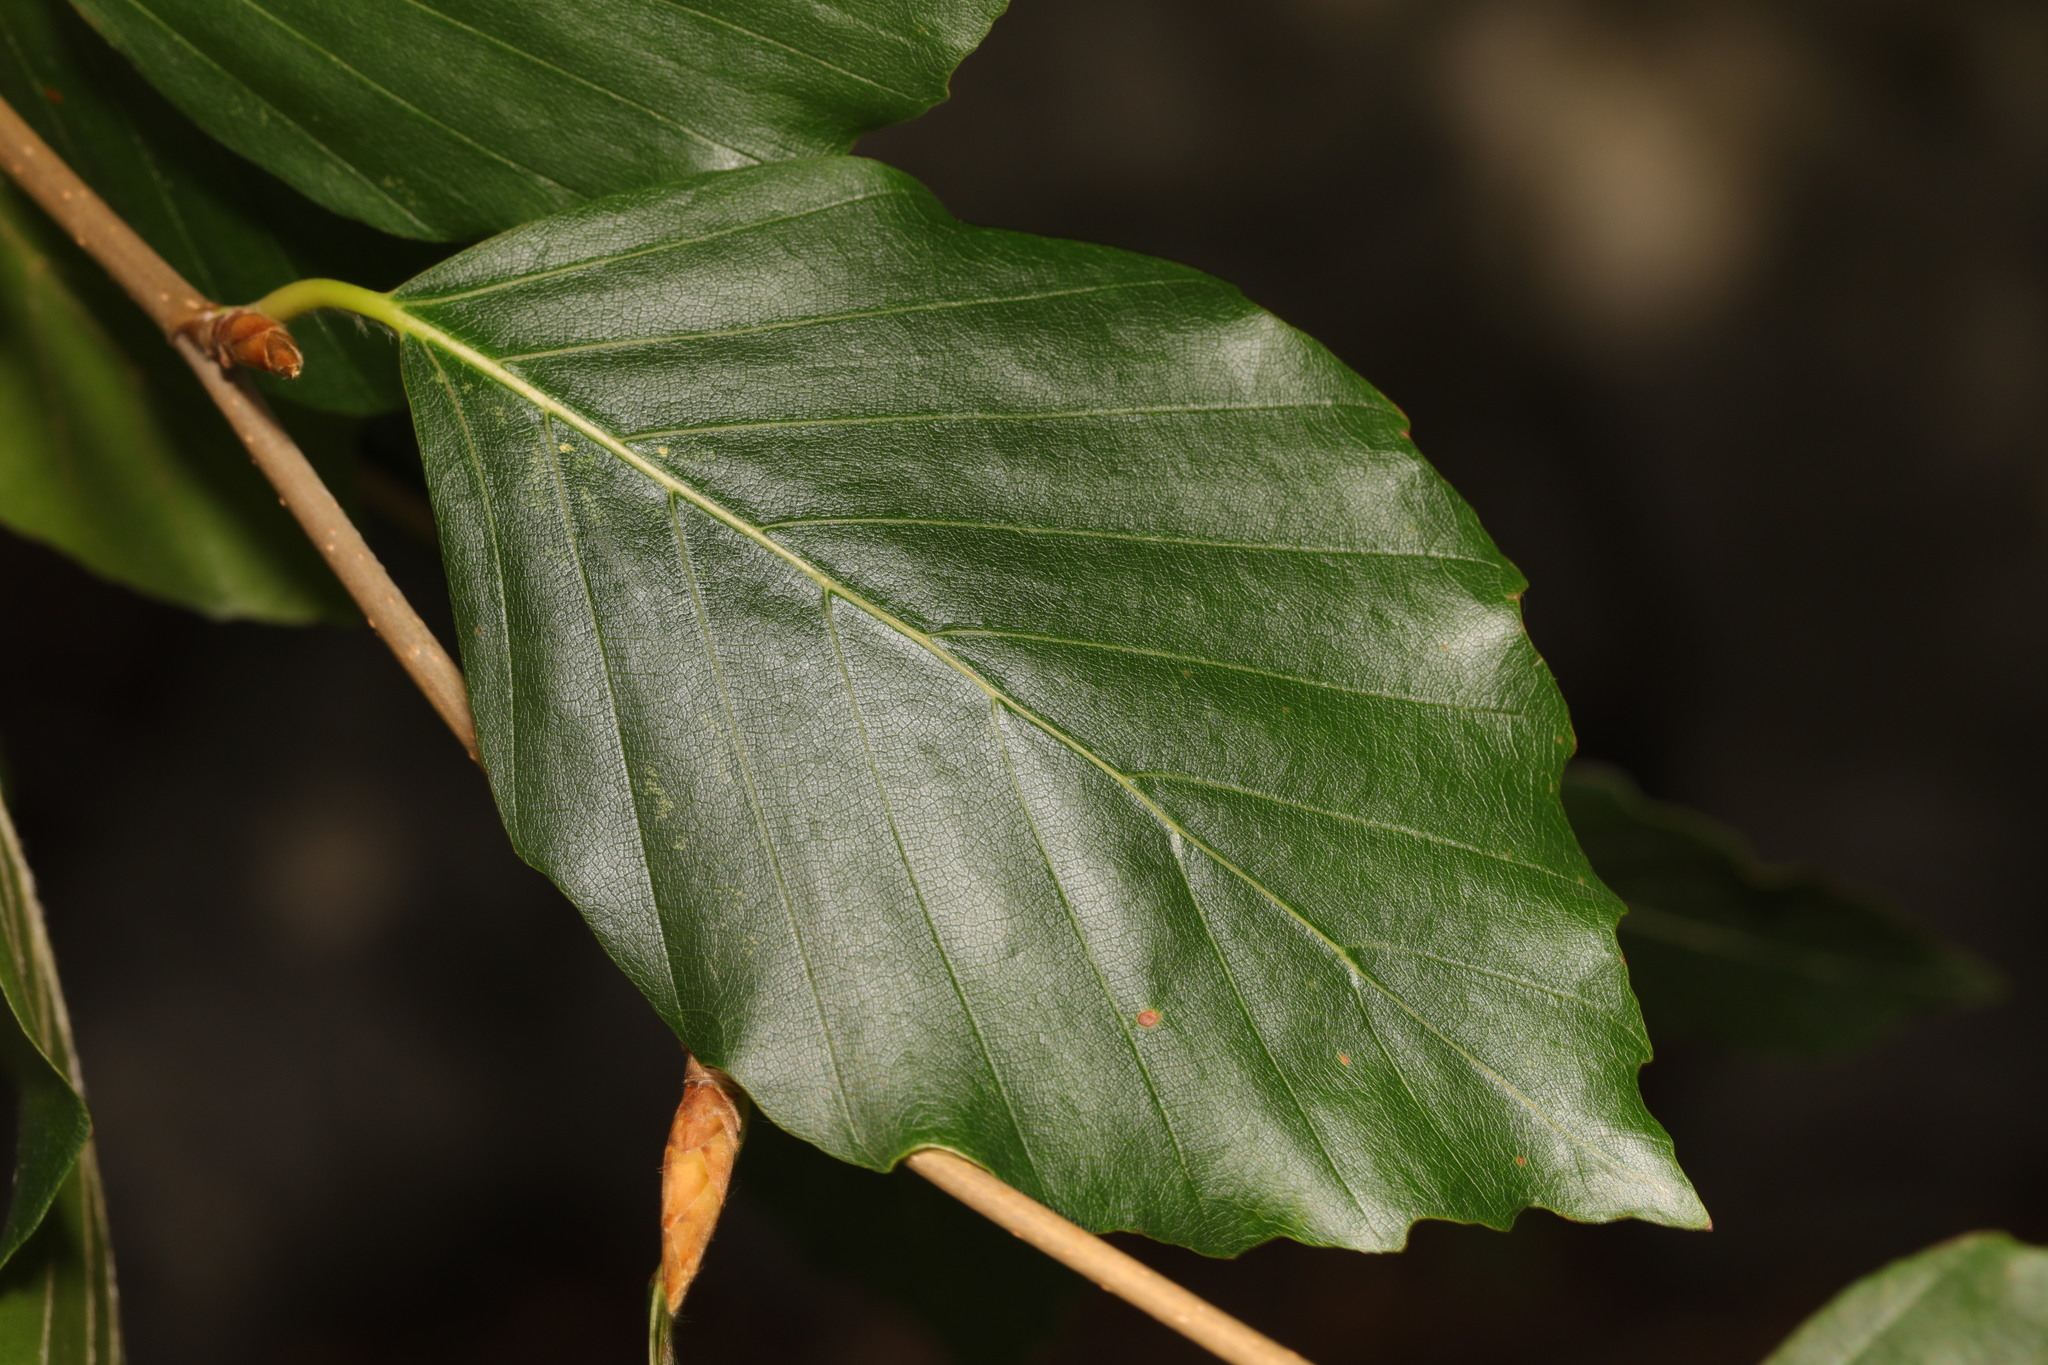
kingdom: Plantae
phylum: Tracheophyta
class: Magnoliopsida
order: Fagales
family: Fagaceae
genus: Fagus
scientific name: Fagus sylvatica
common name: Beech
